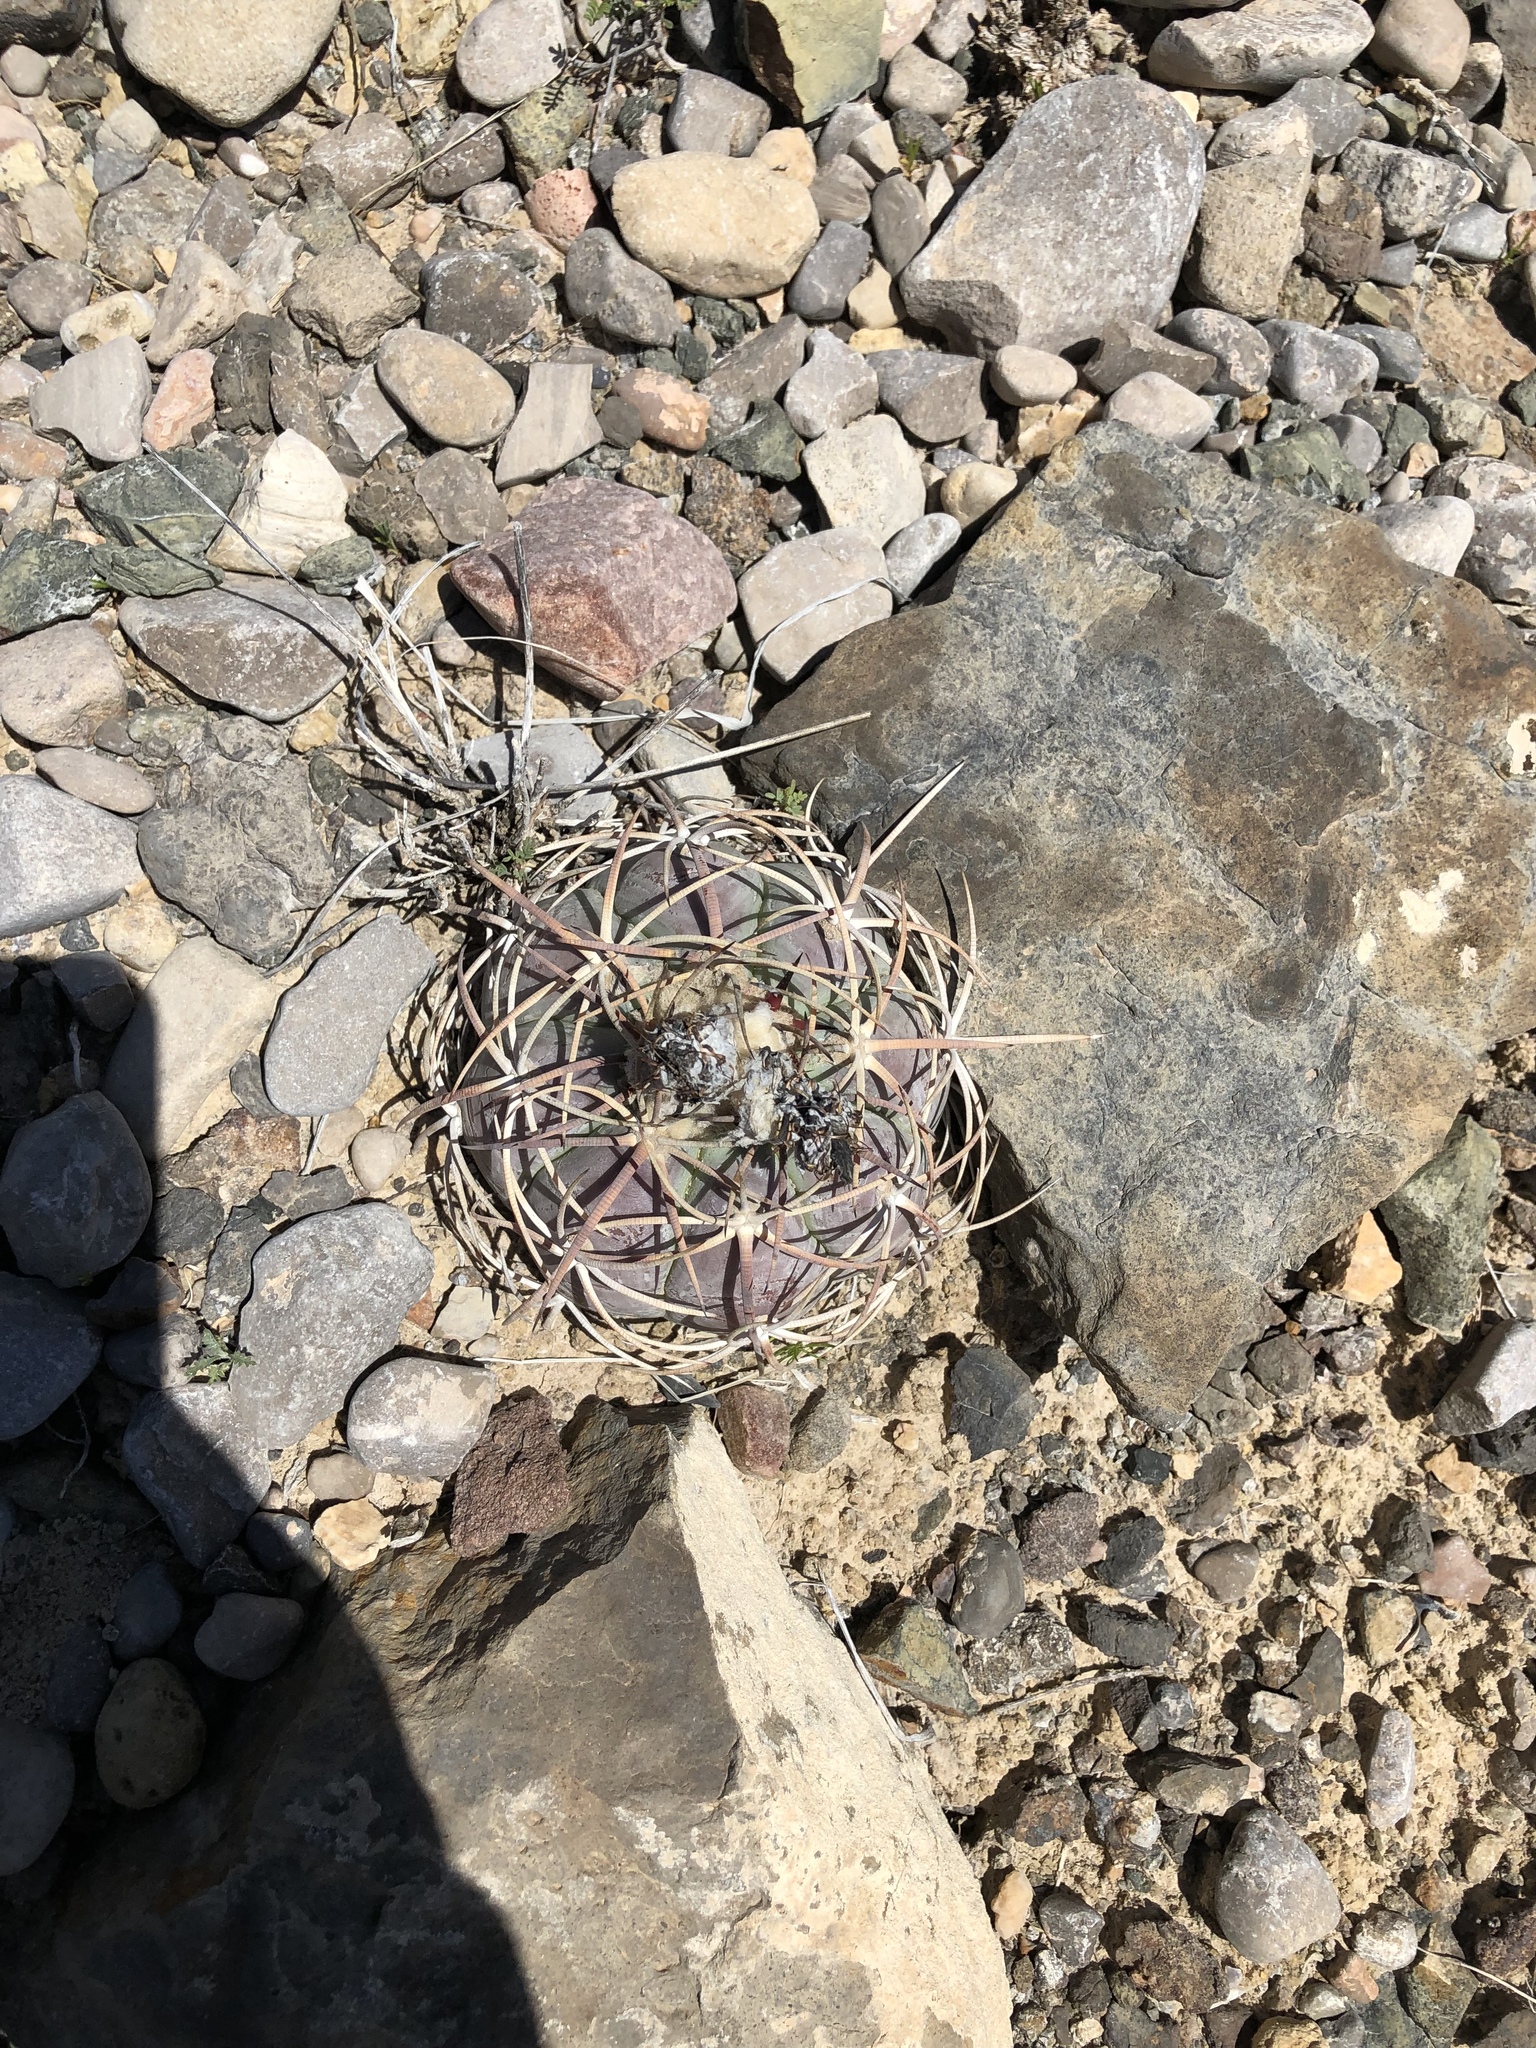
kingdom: Plantae
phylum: Tracheophyta
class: Magnoliopsida
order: Caryophyllales
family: Cactaceae
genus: Echinocactus
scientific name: Echinocactus horizonthalonius
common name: Devilshead
